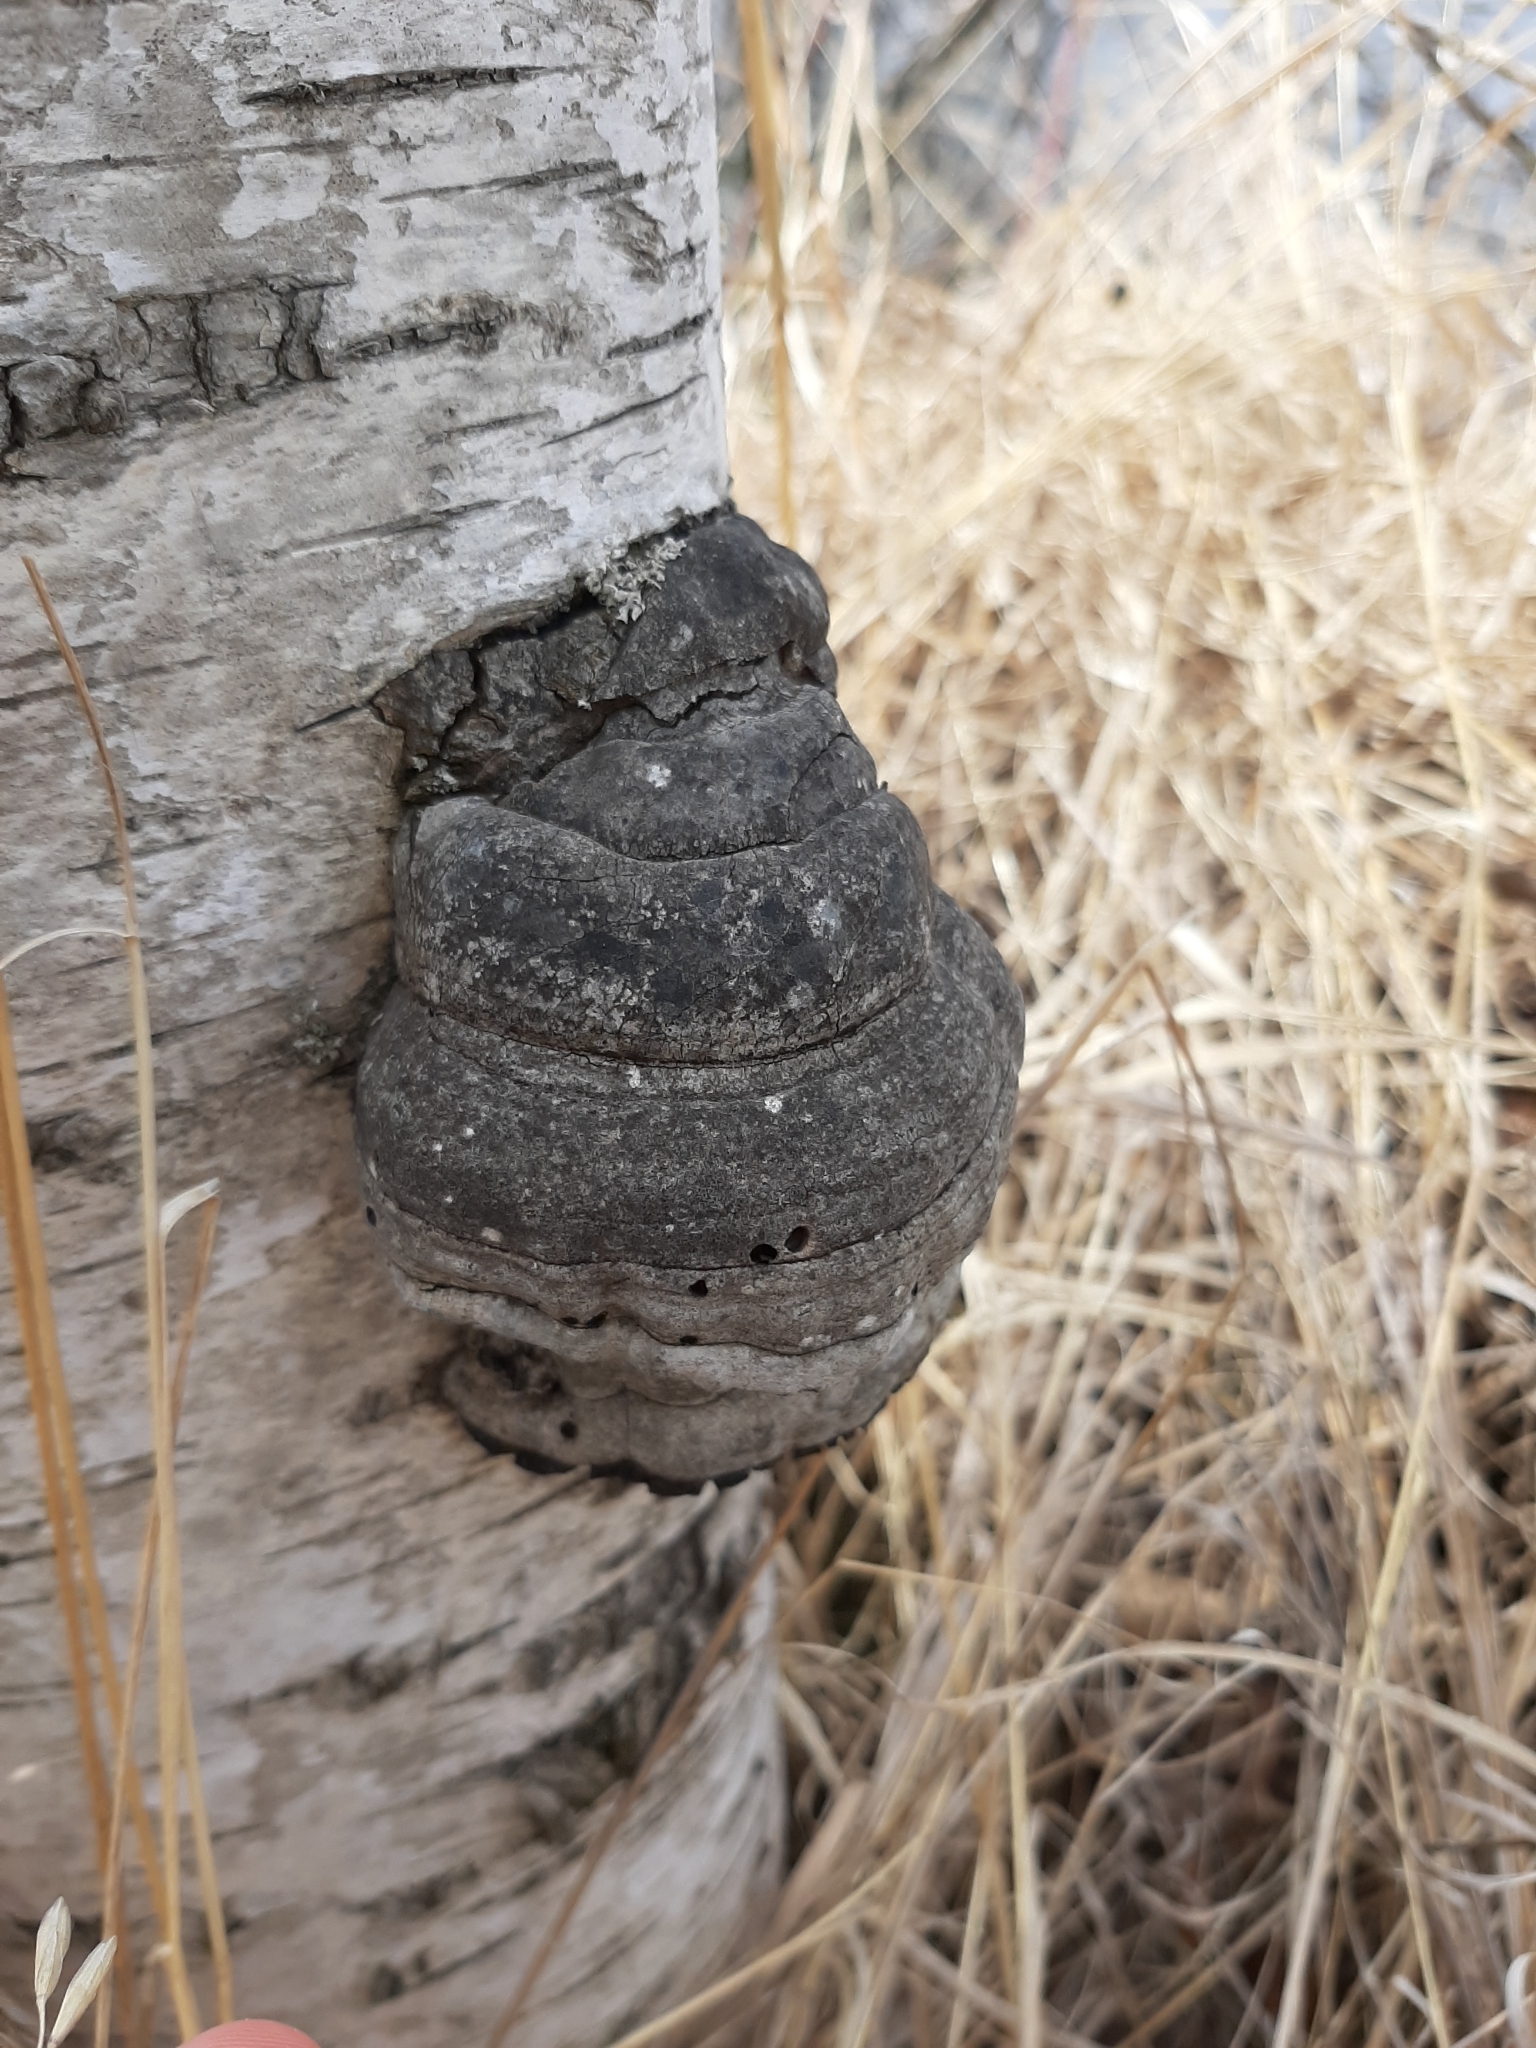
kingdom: Fungi
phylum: Basidiomycota
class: Agaricomycetes
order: Polyporales
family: Polyporaceae
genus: Fomes
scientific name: Fomes fomentarius
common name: Hoof fungus
